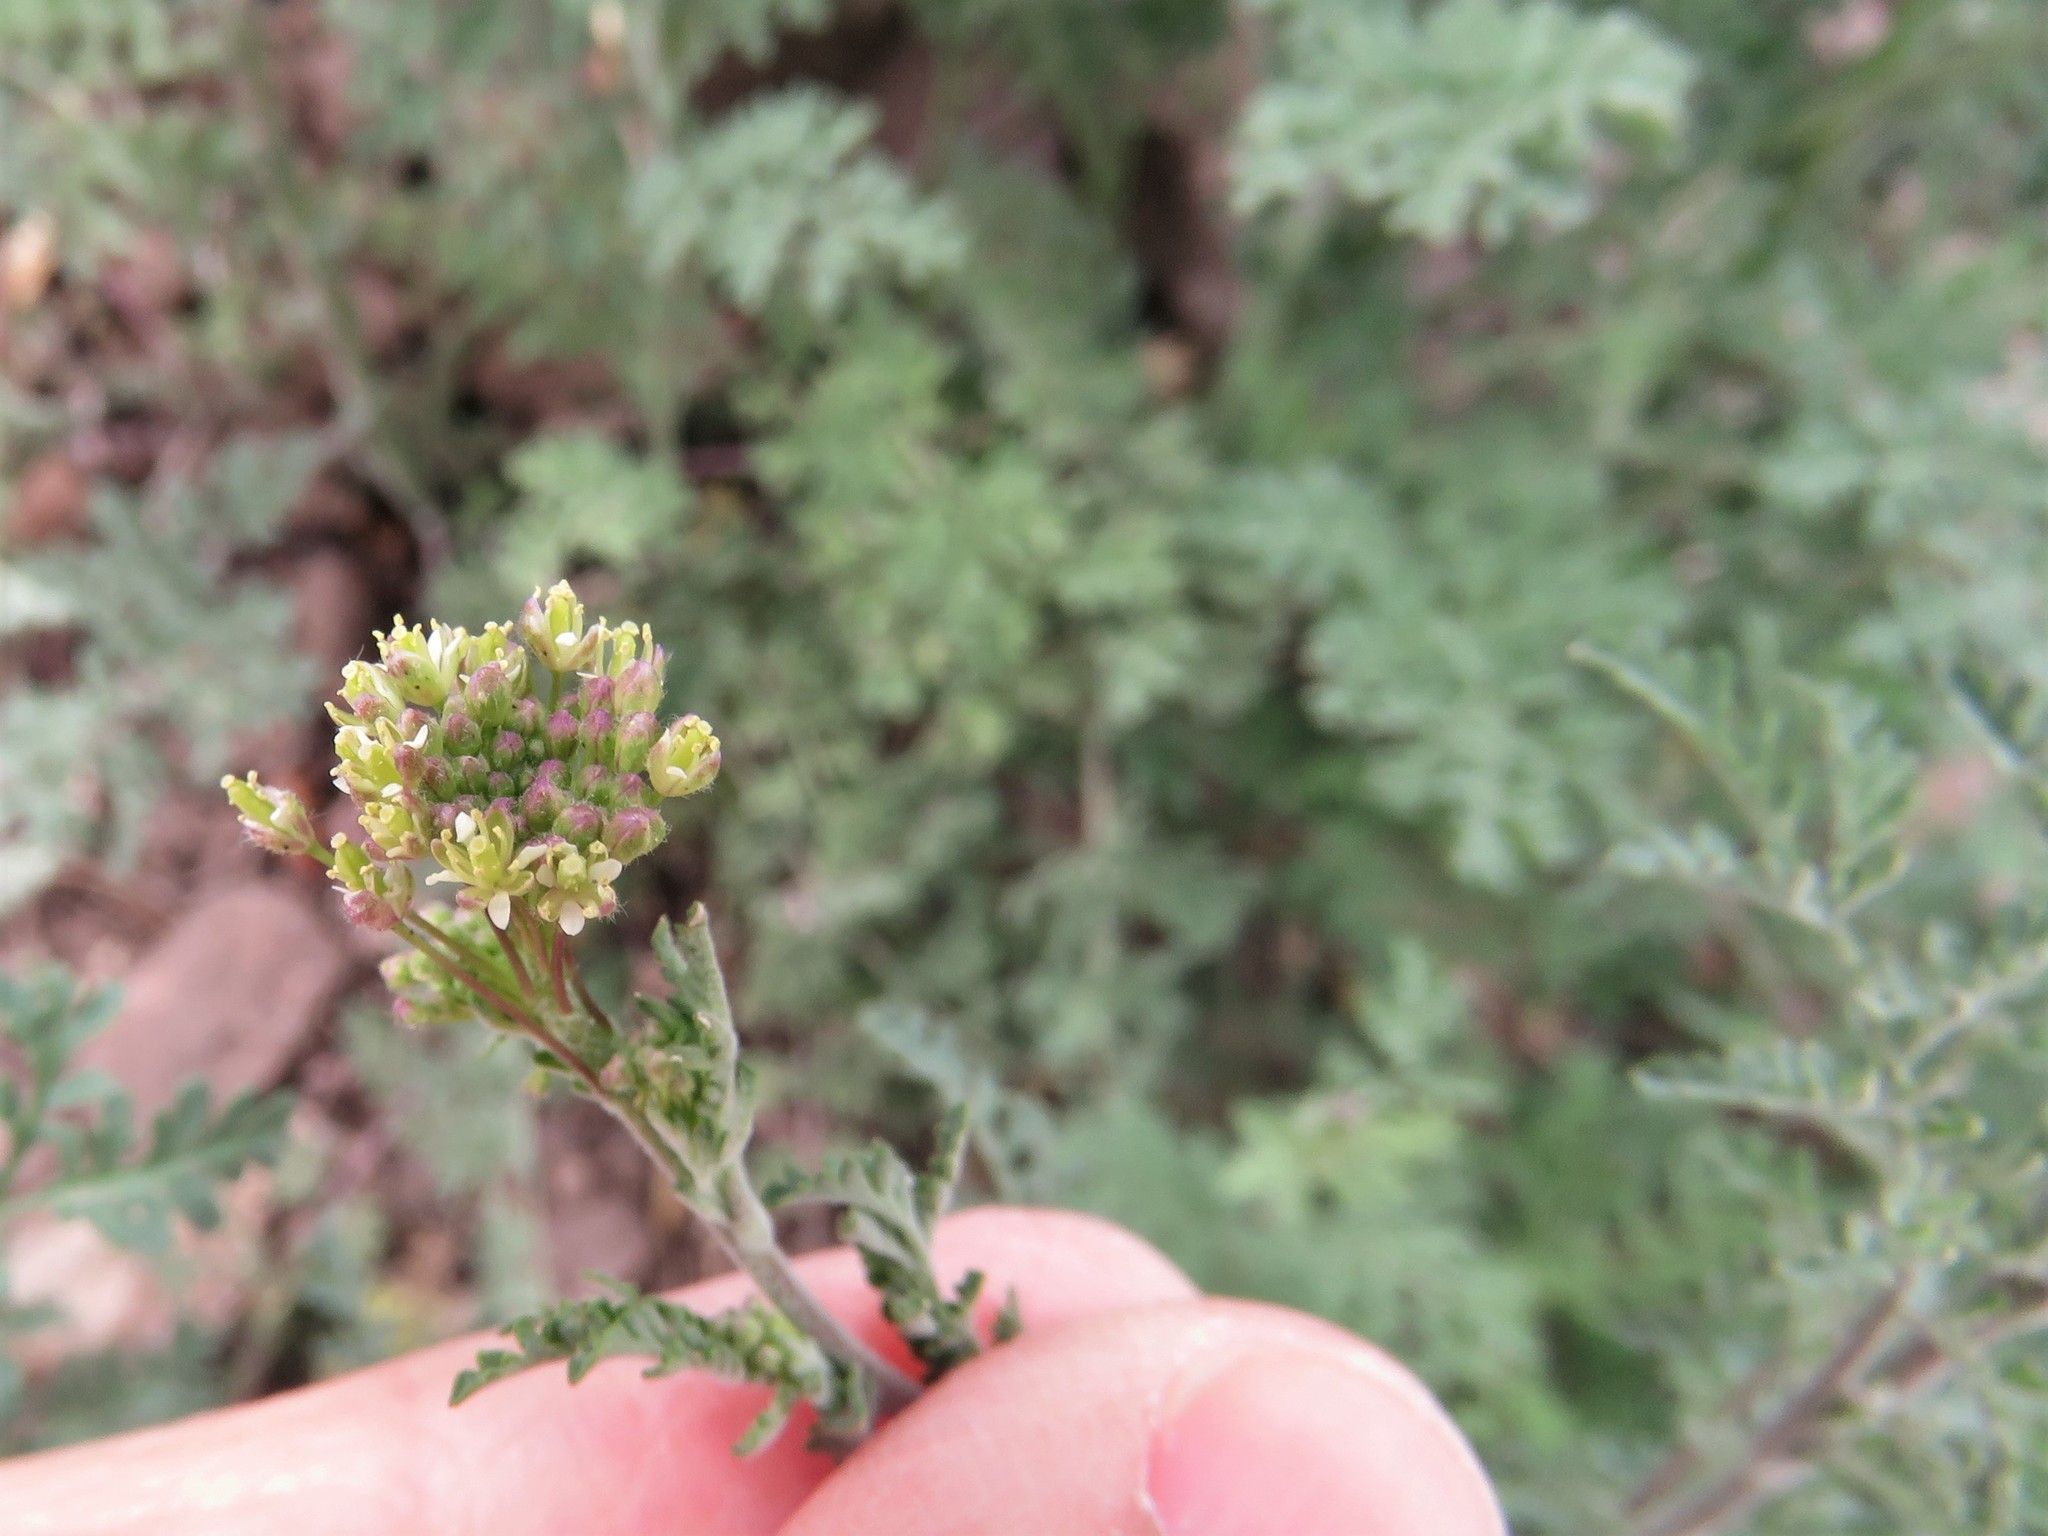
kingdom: Plantae
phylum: Tracheophyta
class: Magnoliopsida
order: Brassicales
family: Brassicaceae
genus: Descurainia
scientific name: Descurainia pinnata
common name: Western tansy mustard
